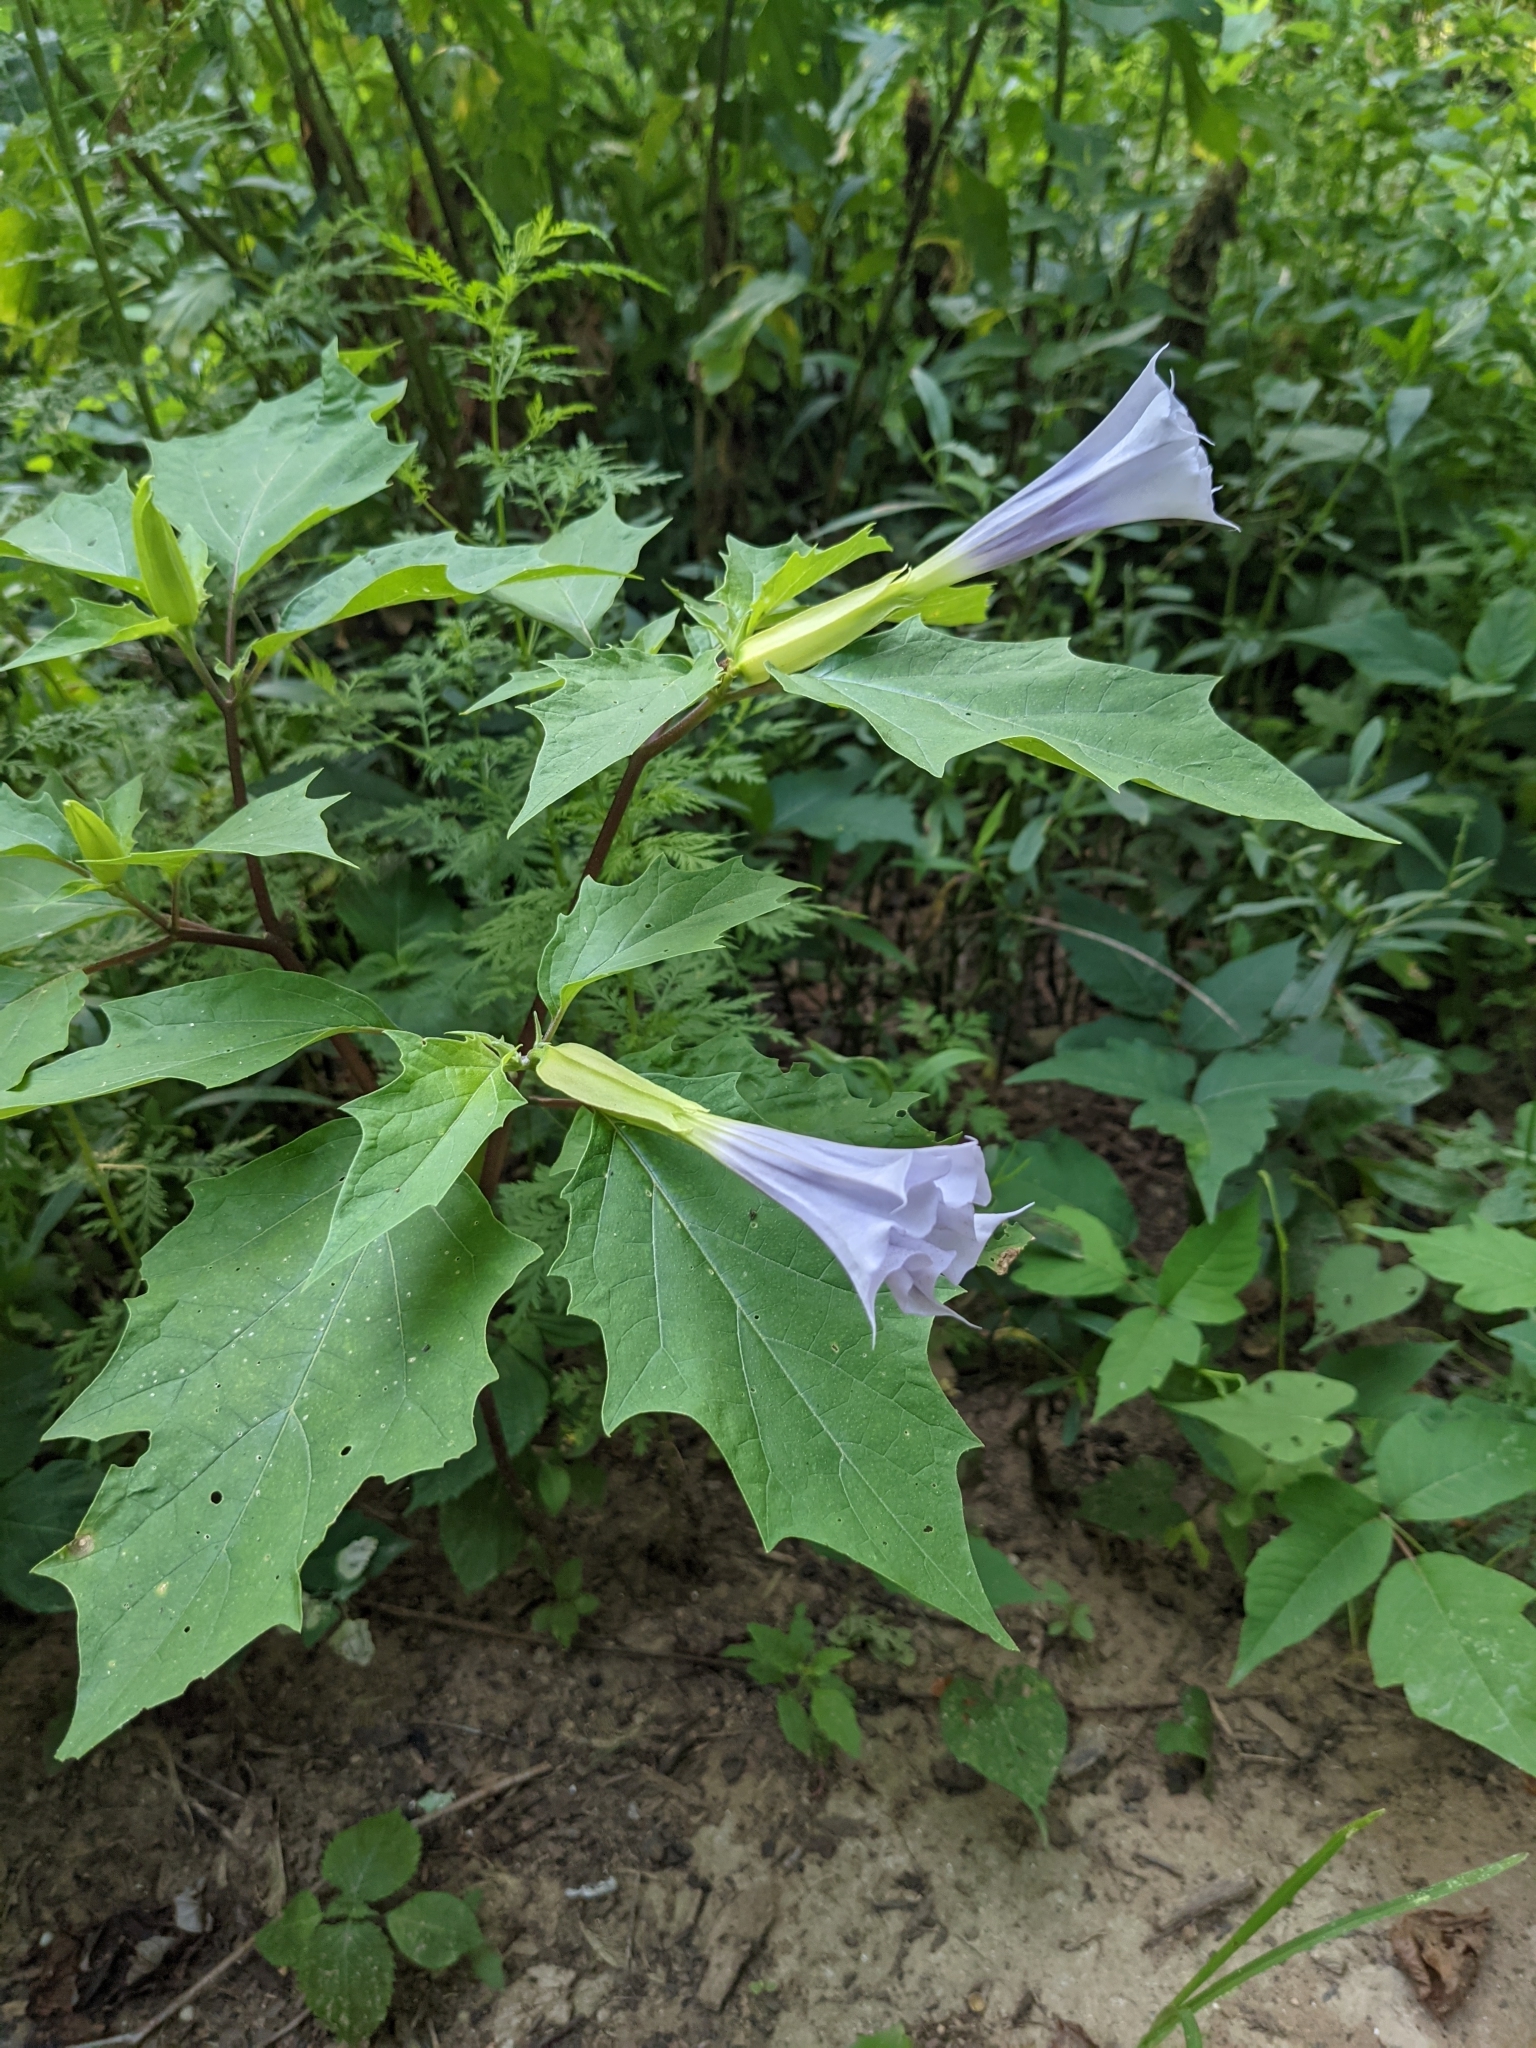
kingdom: Plantae
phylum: Tracheophyta
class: Magnoliopsida
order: Solanales
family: Solanaceae
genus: Datura
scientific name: Datura stramonium
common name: Thorn-apple
